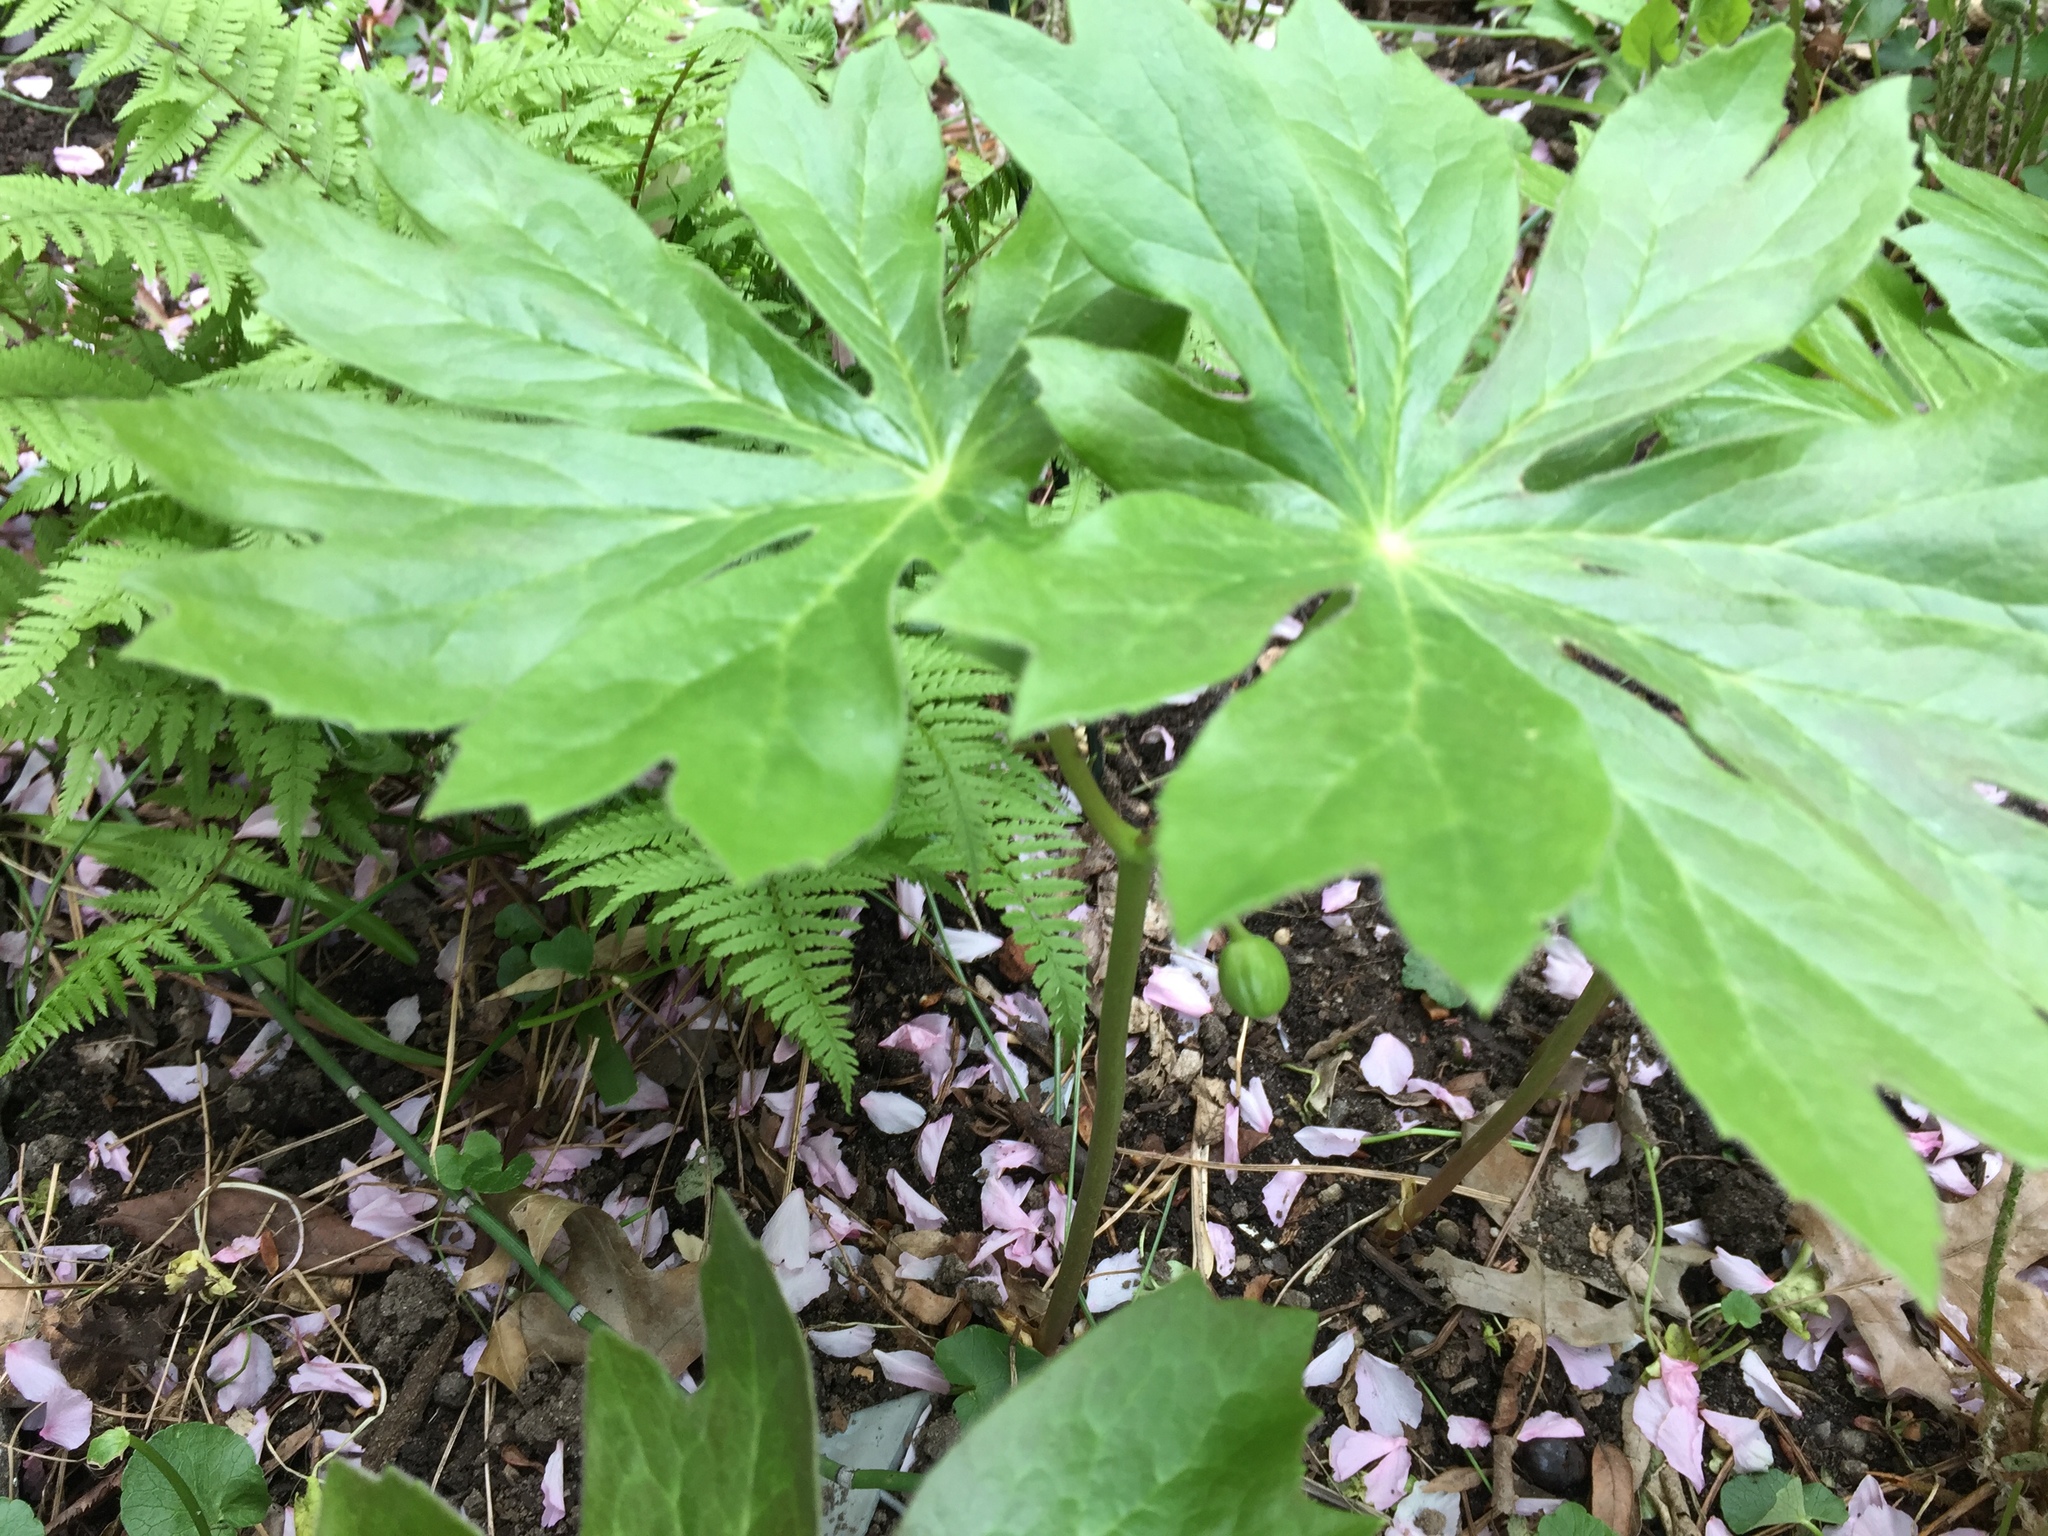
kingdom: Plantae
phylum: Tracheophyta
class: Magnoliopsida
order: Ranunculales
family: Berberidaceae
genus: Podophyllum
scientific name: Podophyllum peltatum
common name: Wild mandrake
